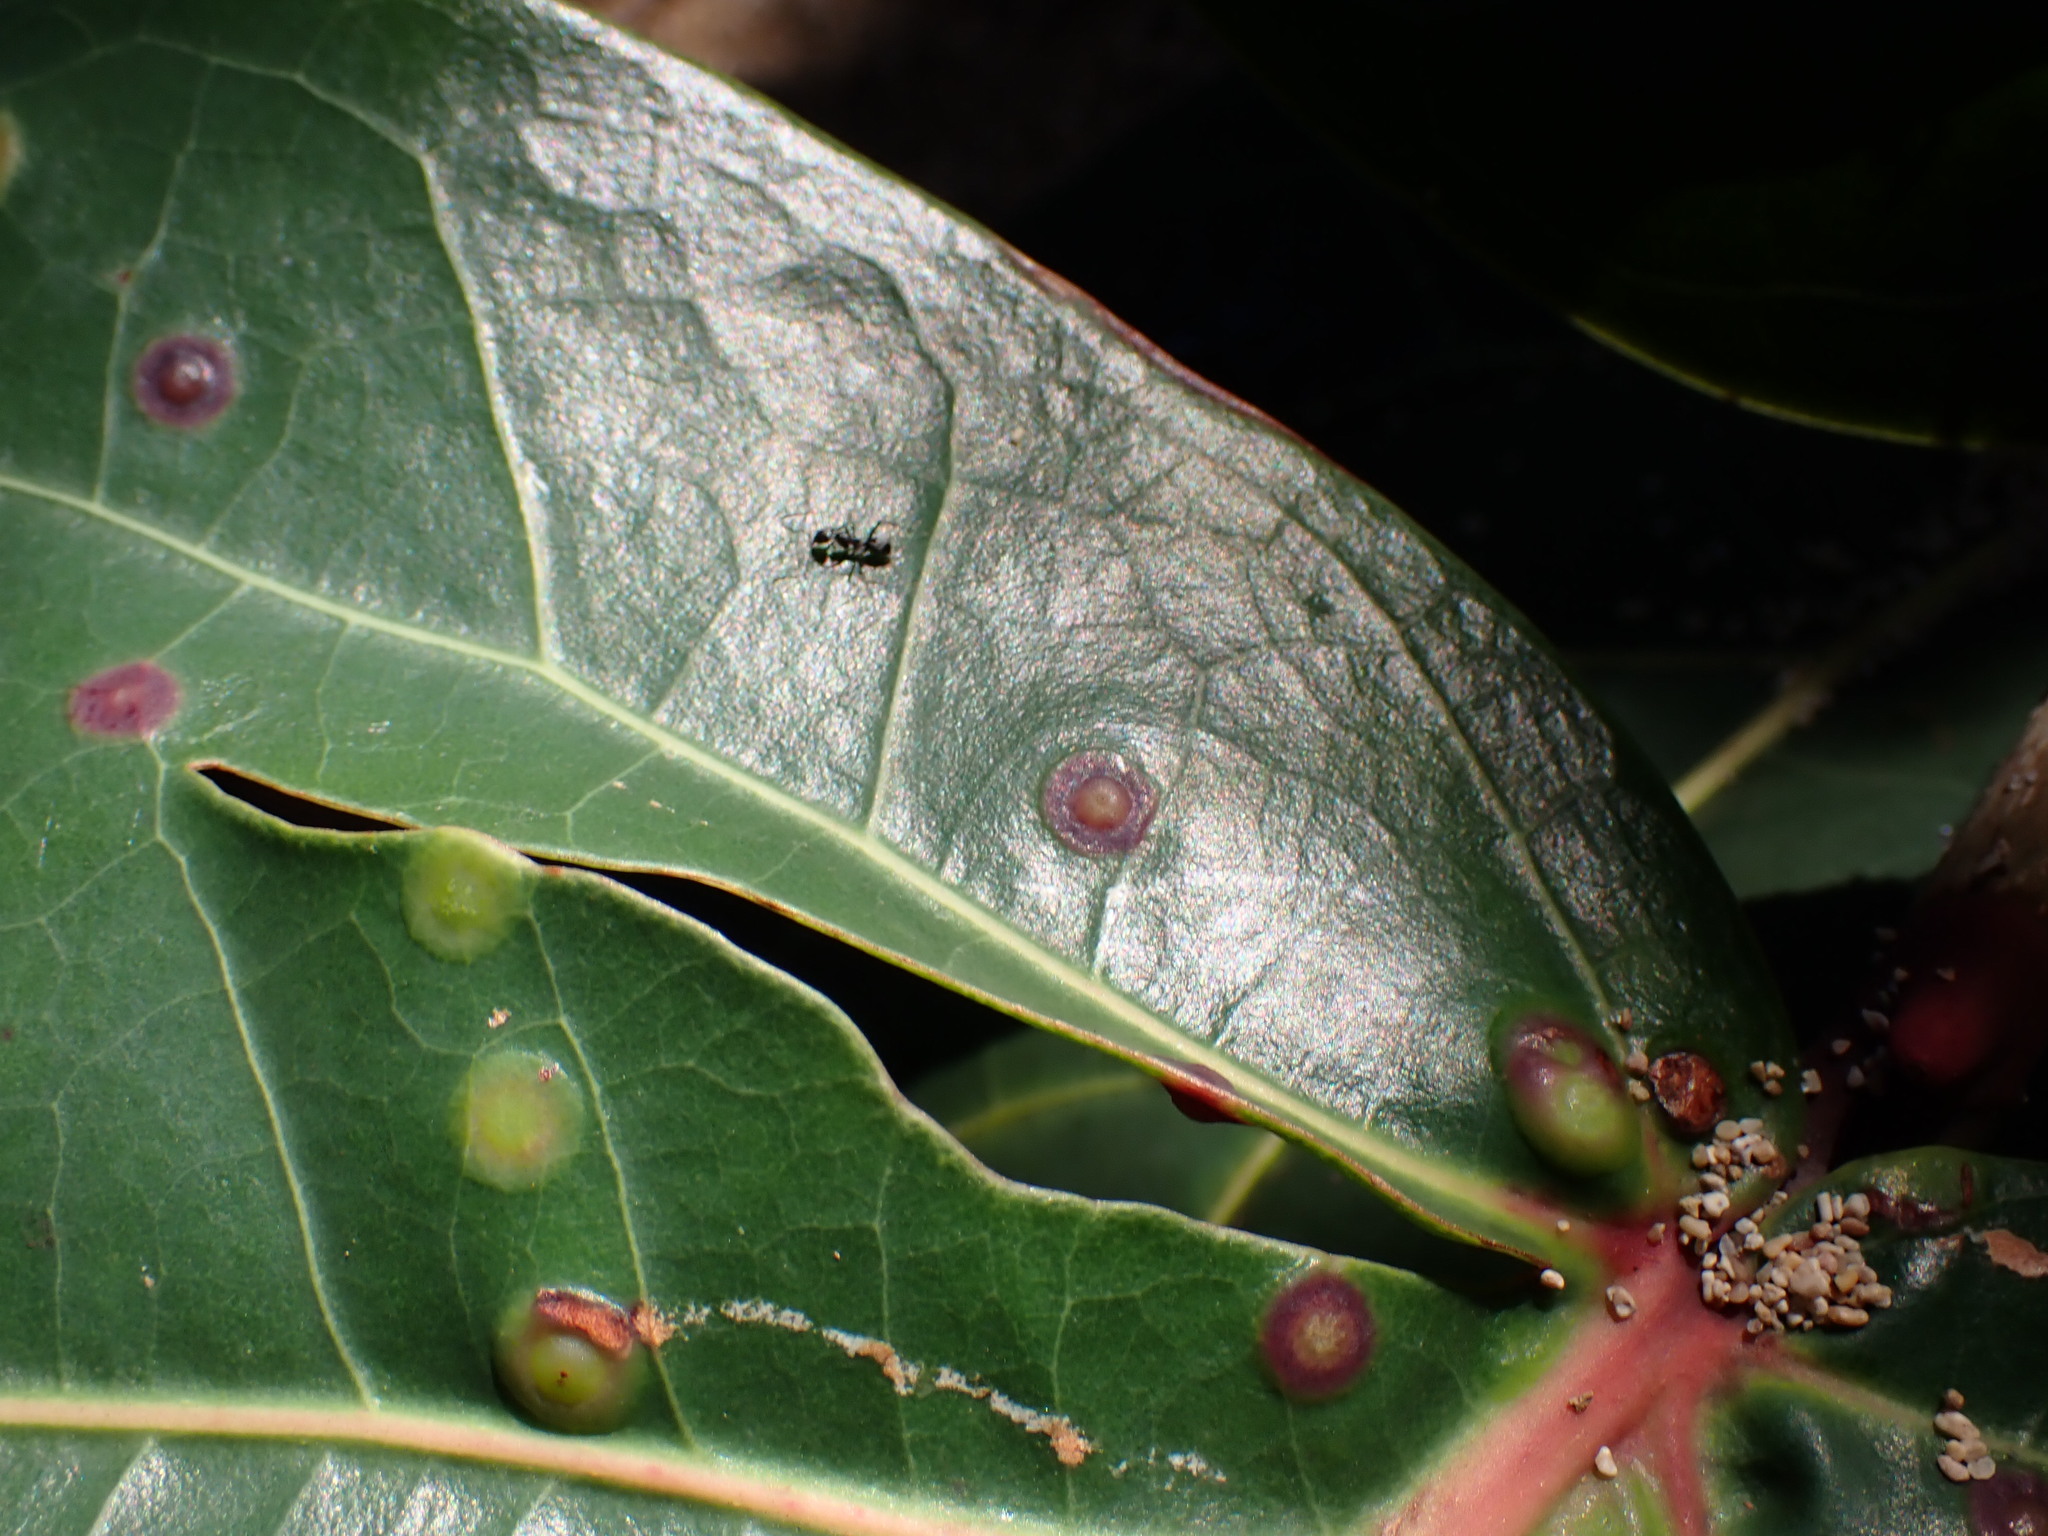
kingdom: Animalia
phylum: Arthropoda
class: Insecta
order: Diptera
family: Cecidomyiidae
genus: Ctenodactylomyia
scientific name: Ctenodactylomyia watsoni
